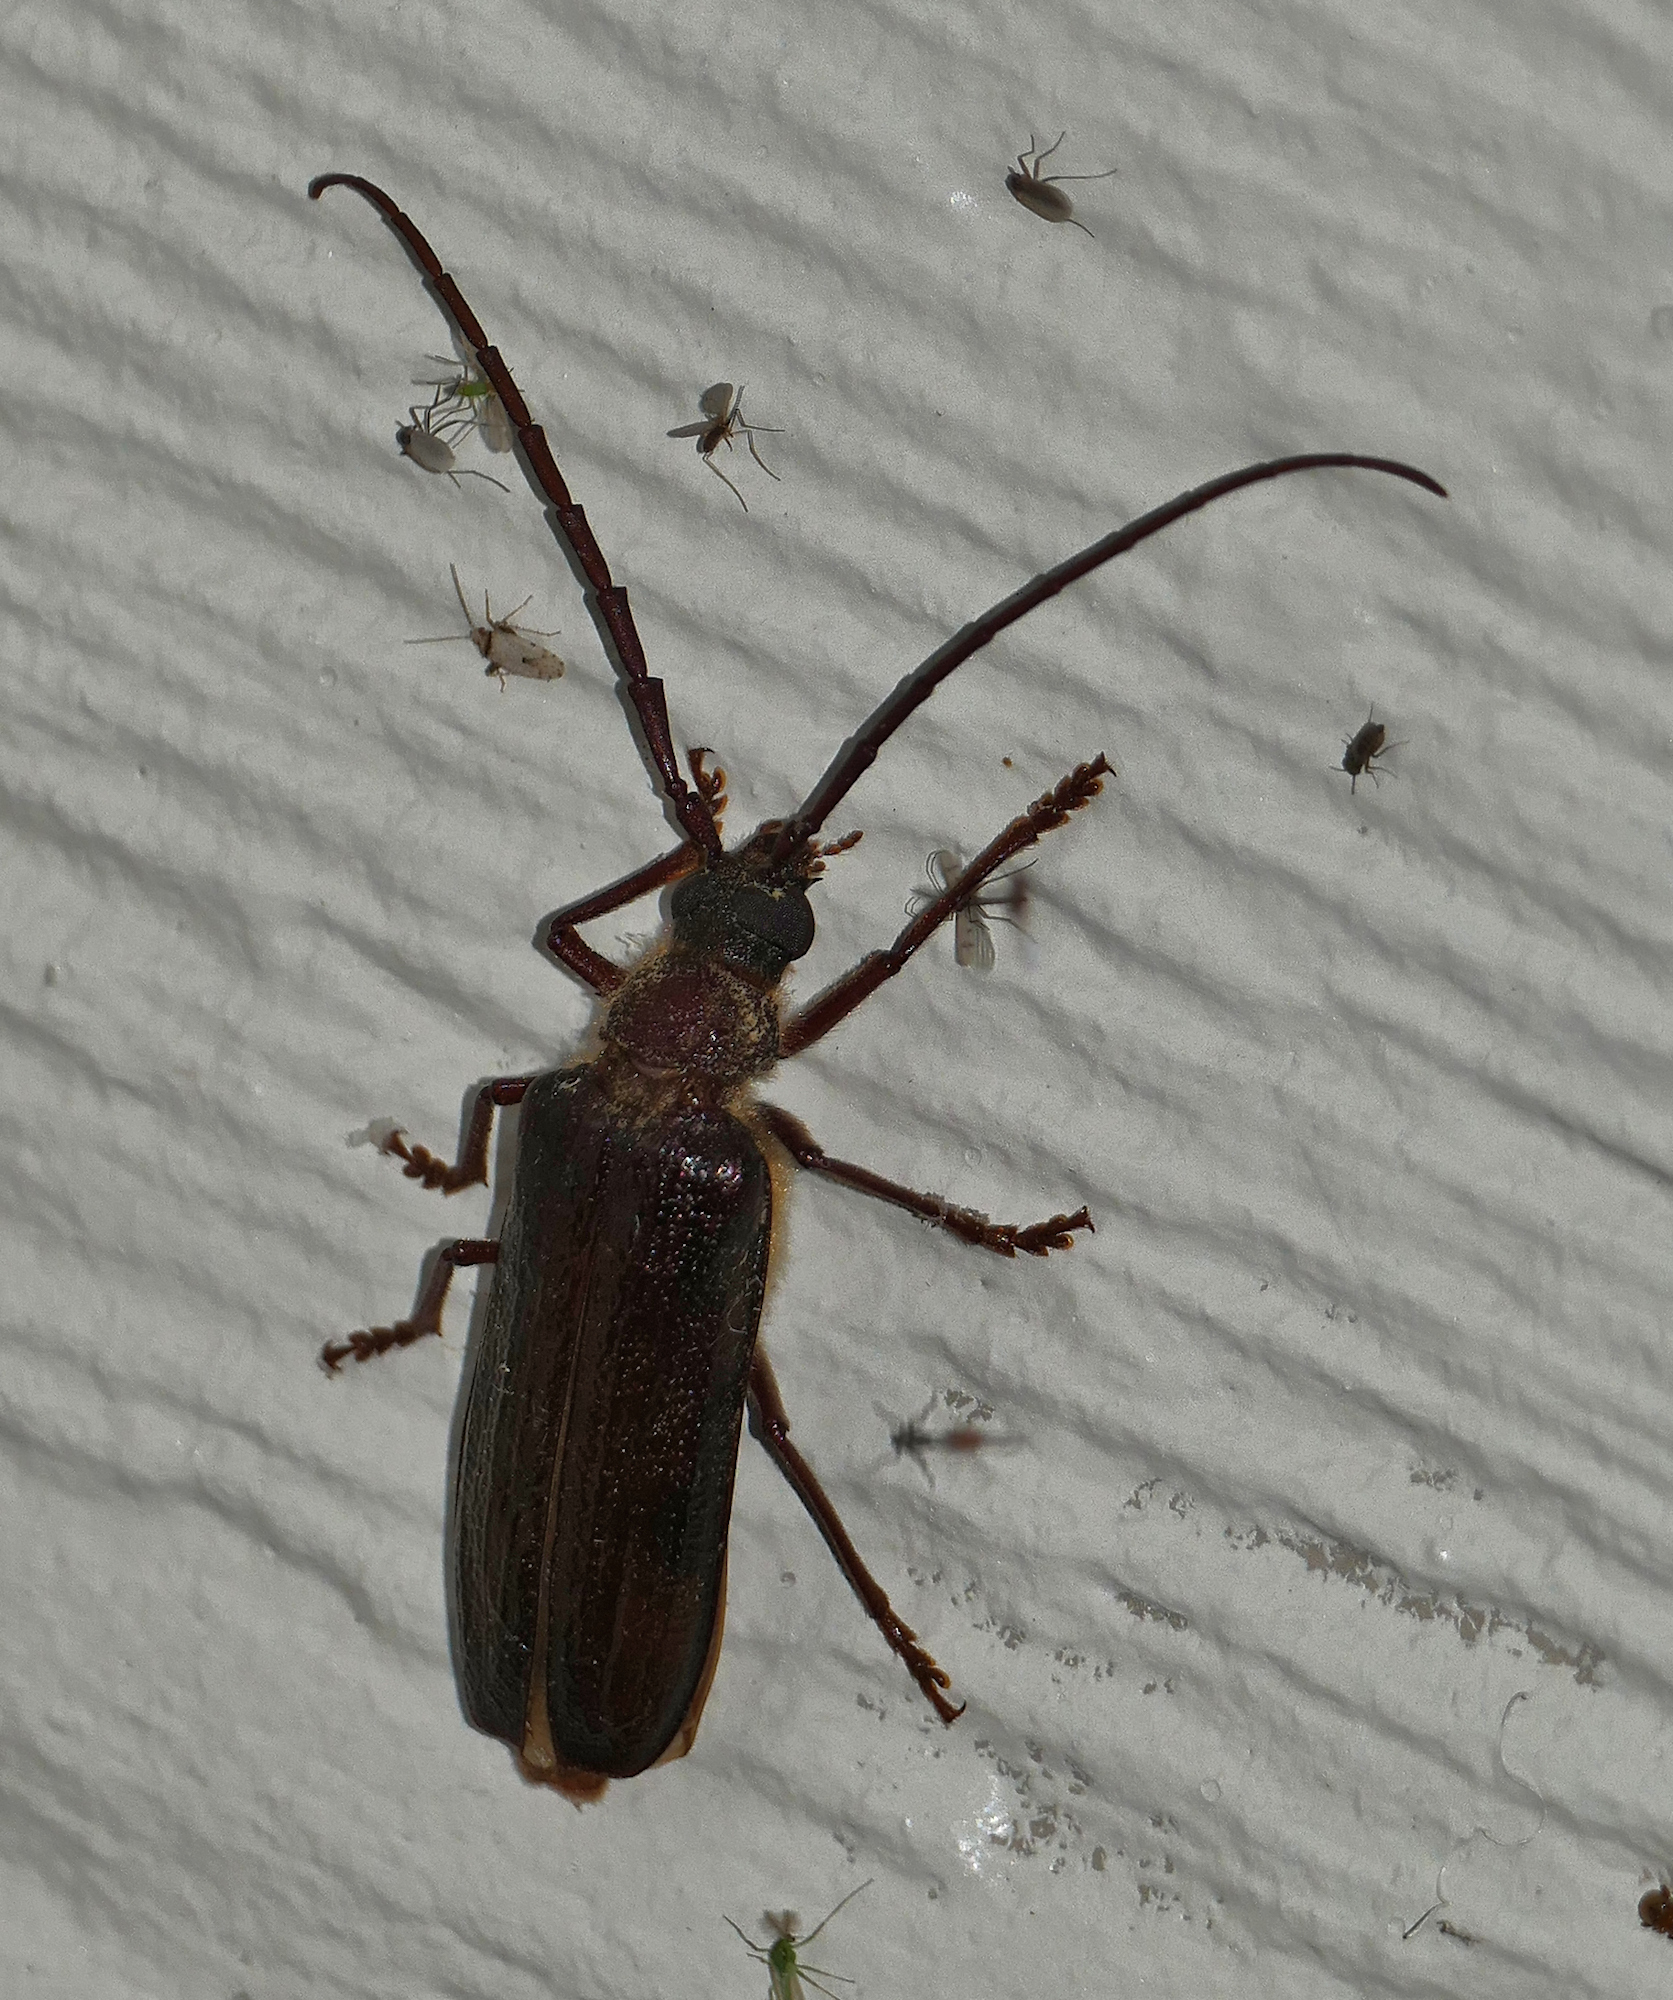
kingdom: Animalia
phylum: Arthropoda
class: Insecta
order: Coleoptera
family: Cerambycidae
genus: Tragosoma
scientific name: Tragosoma harrisii
